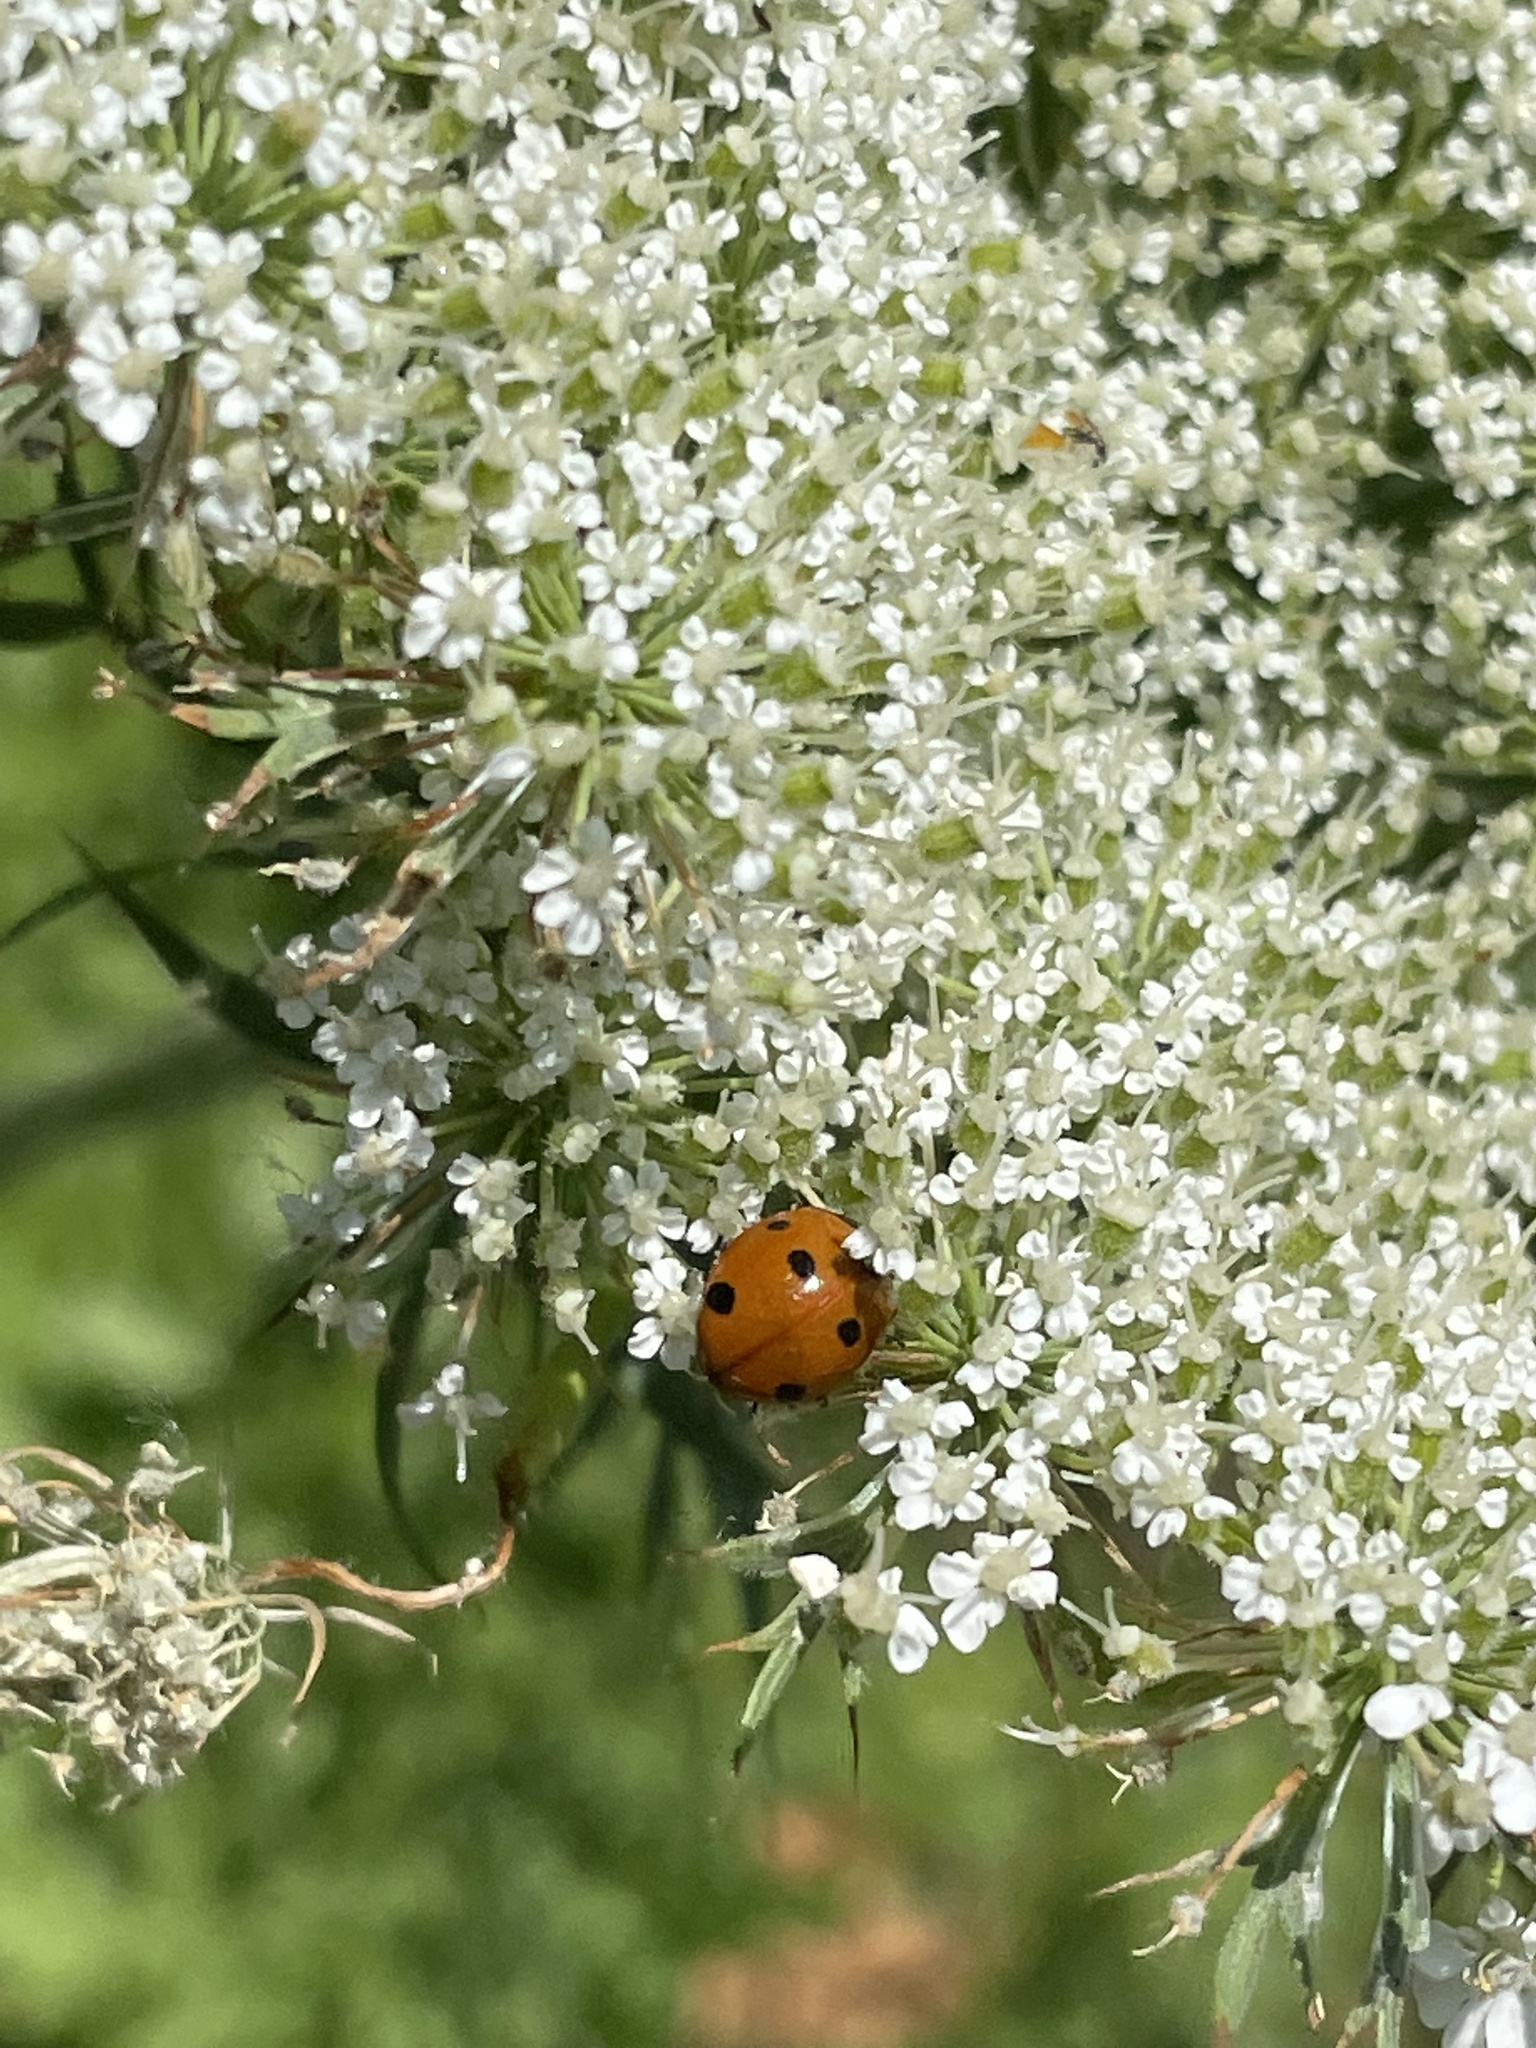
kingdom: Animalia
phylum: Arthropoda
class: Insecta
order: Coleoptera
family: Coccinellidae
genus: Coccinella
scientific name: Coccinella septempunctata
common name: Sevenspotted lady beetle
